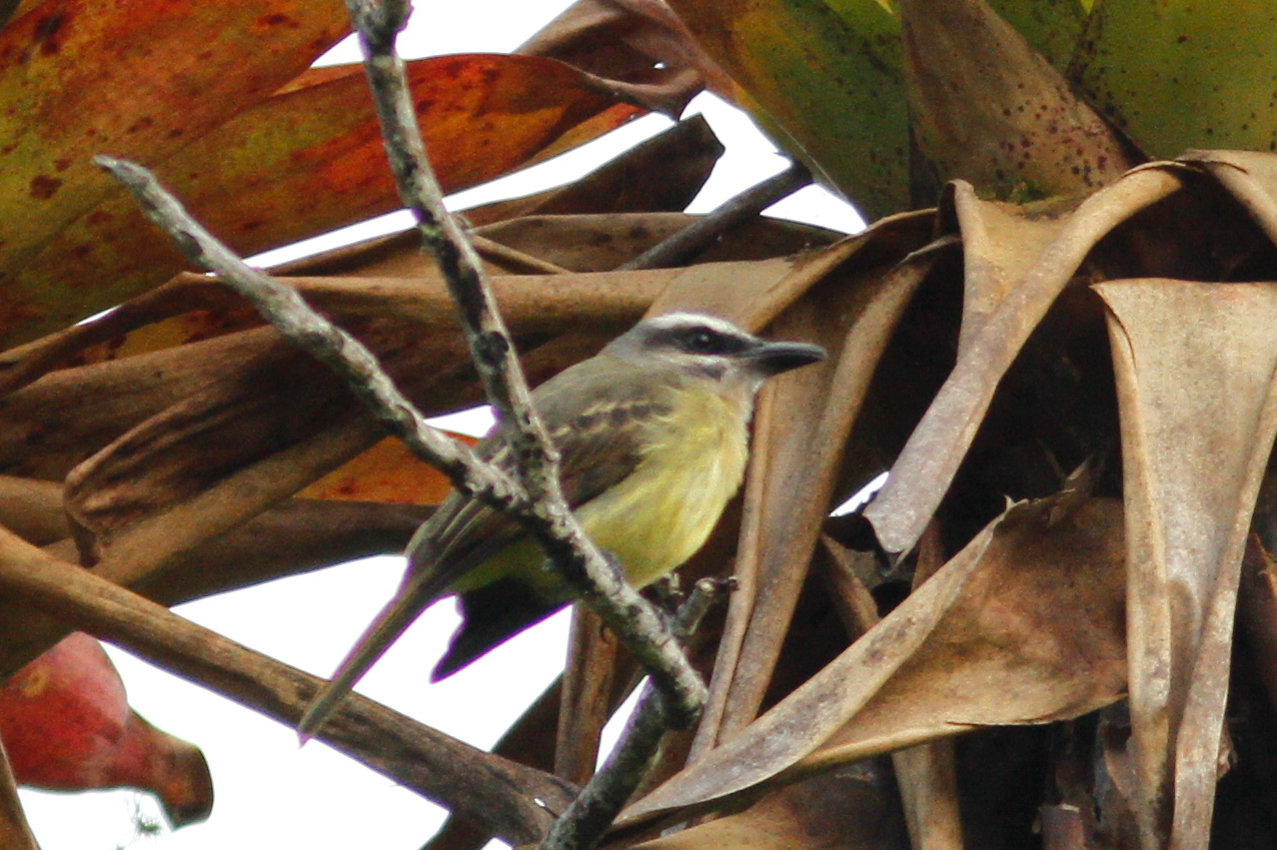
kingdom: Animalia
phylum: Chordata
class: Aves
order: Passeriformes
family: Tyrannidae
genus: Myiodynastes
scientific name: Myiodynastes hemichrysus
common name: Golden-bellied flycatcher
